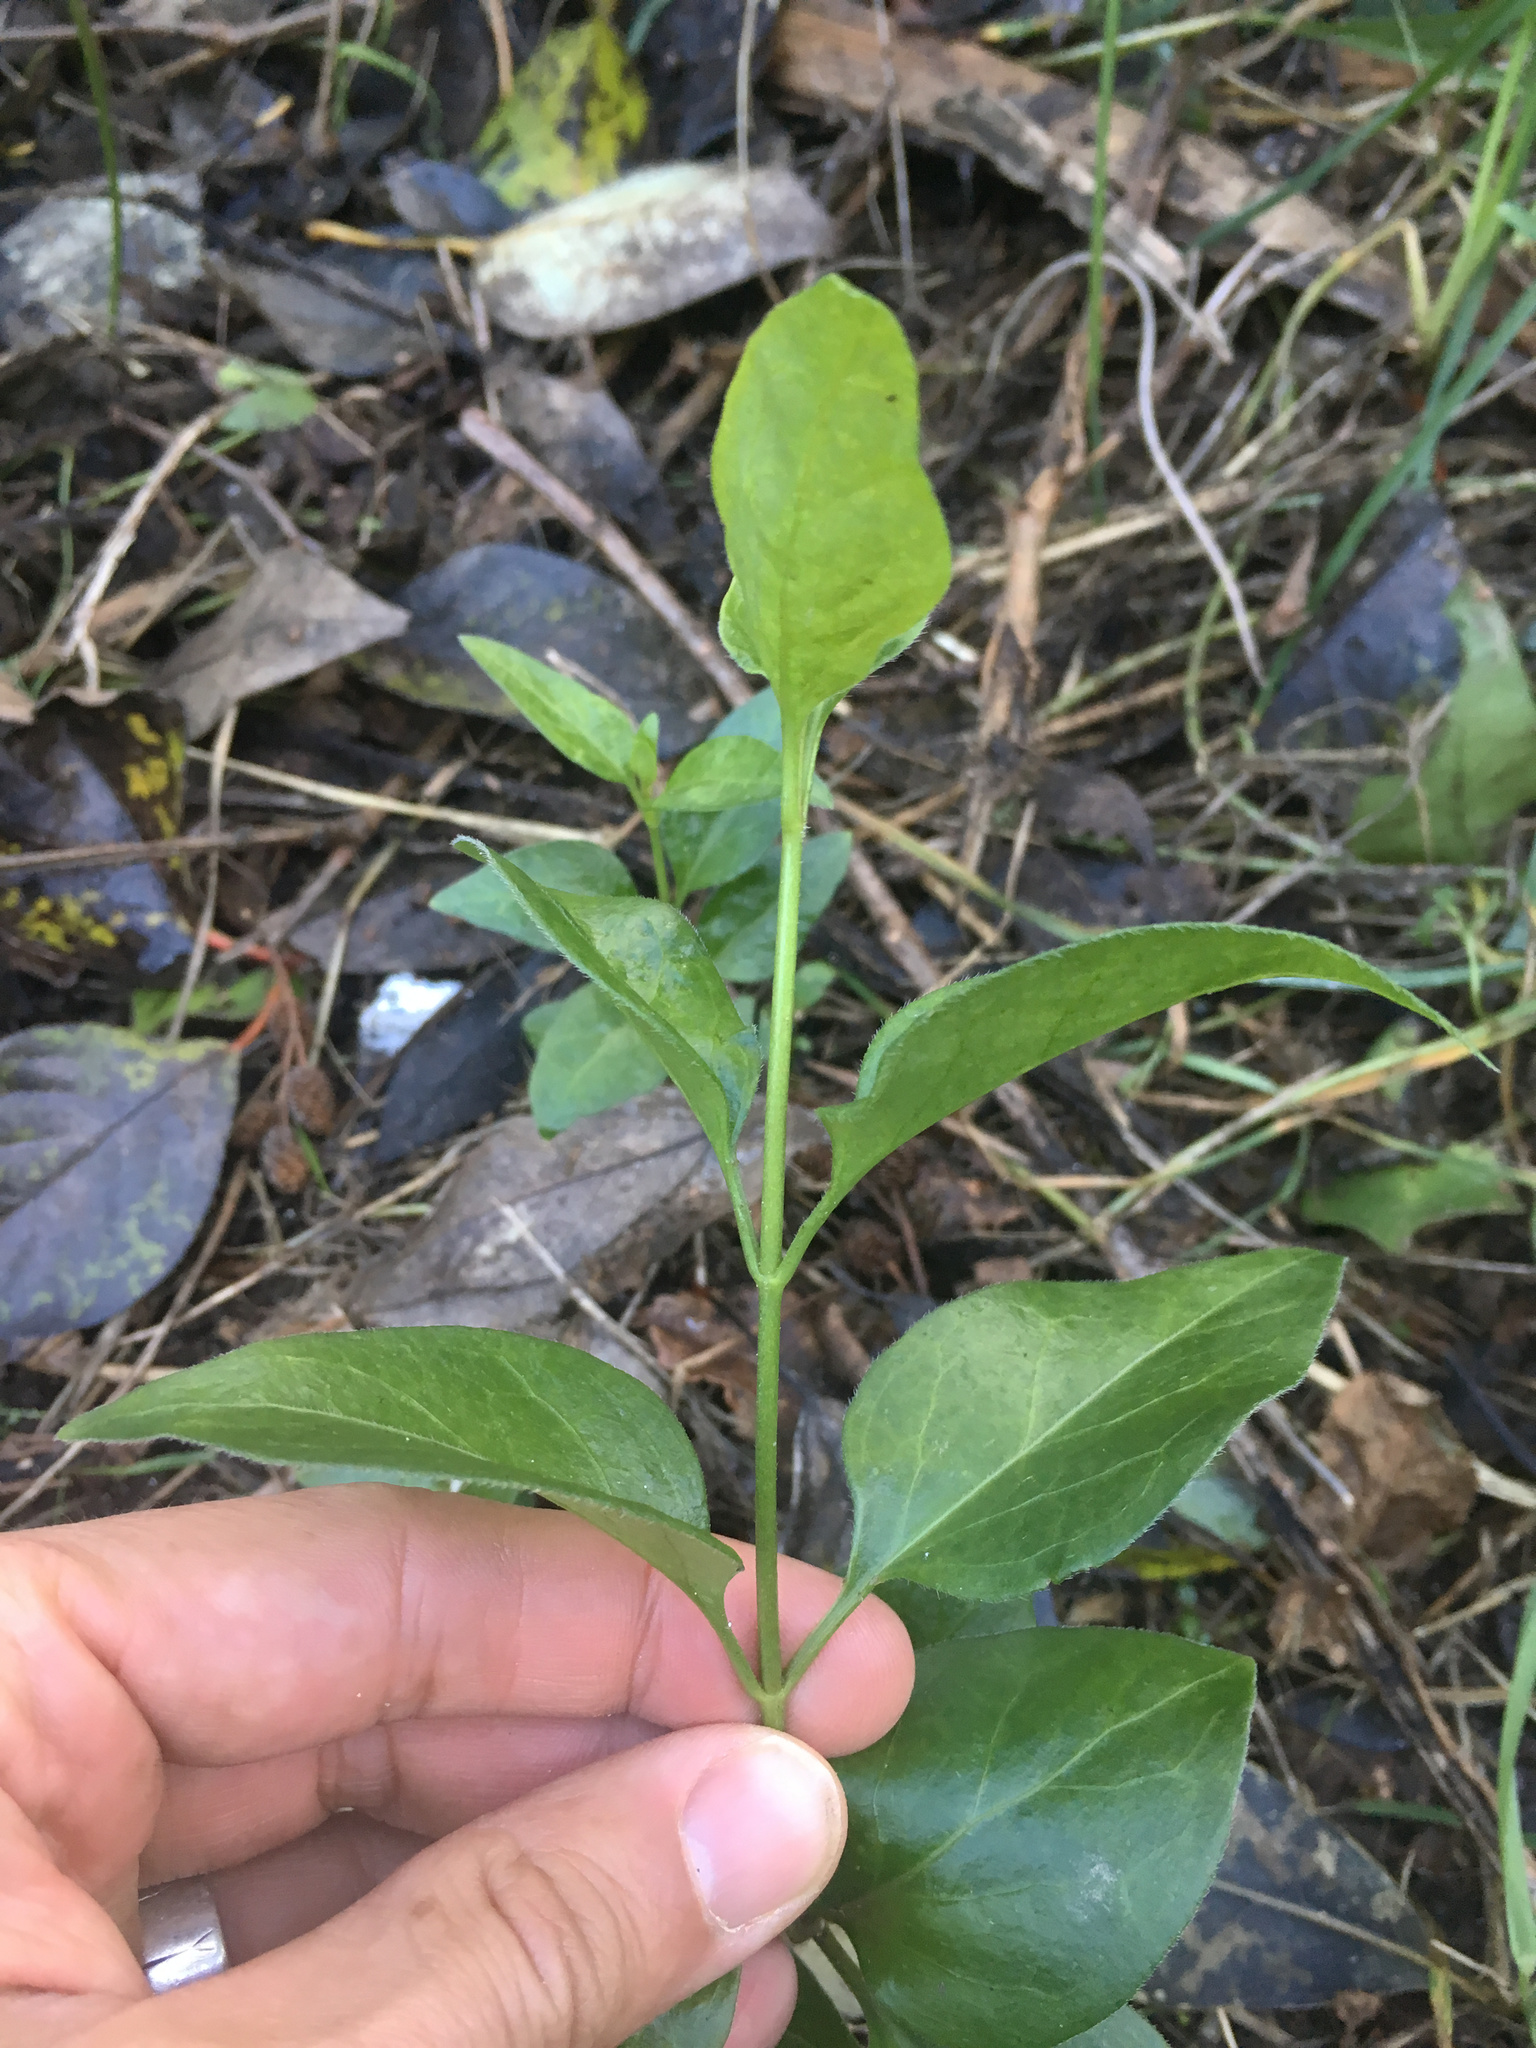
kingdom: Plantae
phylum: Tracheophyta
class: Magnoliopsida
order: Gentianales
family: Apocynaceae
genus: Vinca
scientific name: Vinca major
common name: Greater periwinkle
